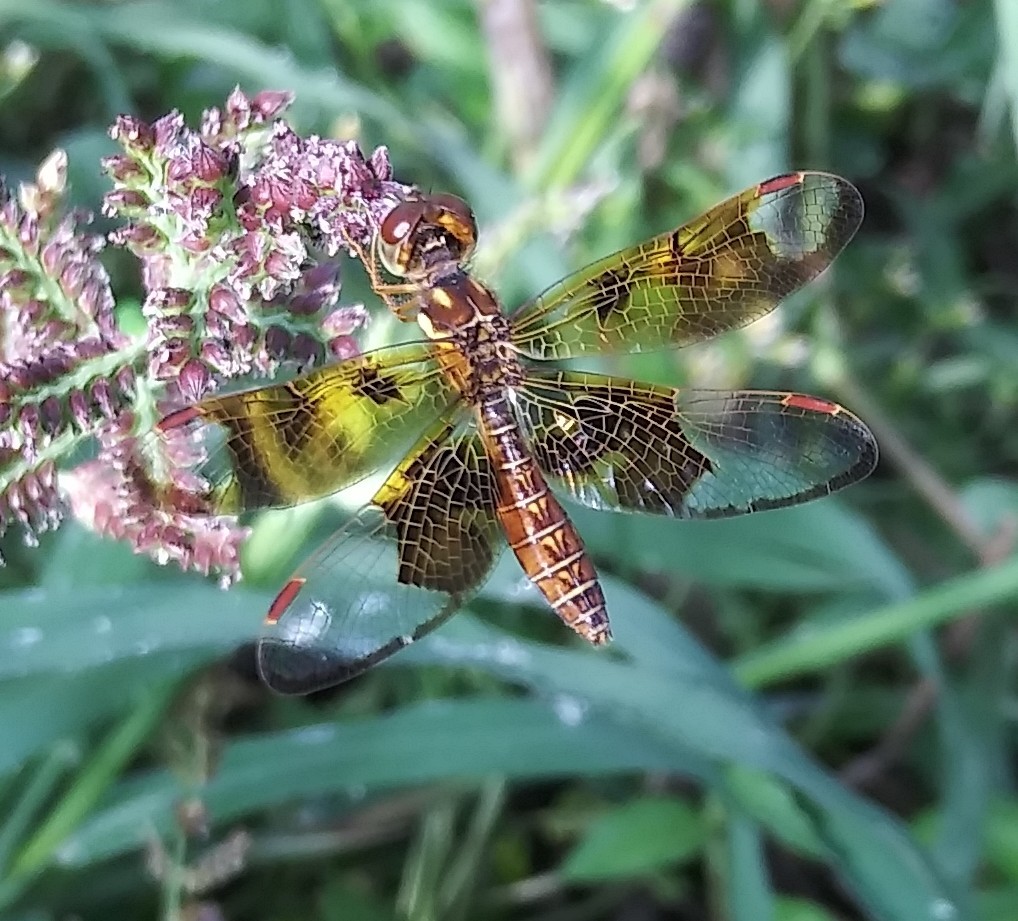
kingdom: Animalia
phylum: Arthropoda
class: Insecta
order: Odonata
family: Libellulidae
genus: Perithemis
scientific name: Perithemis tenera
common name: Eastern amberwing
